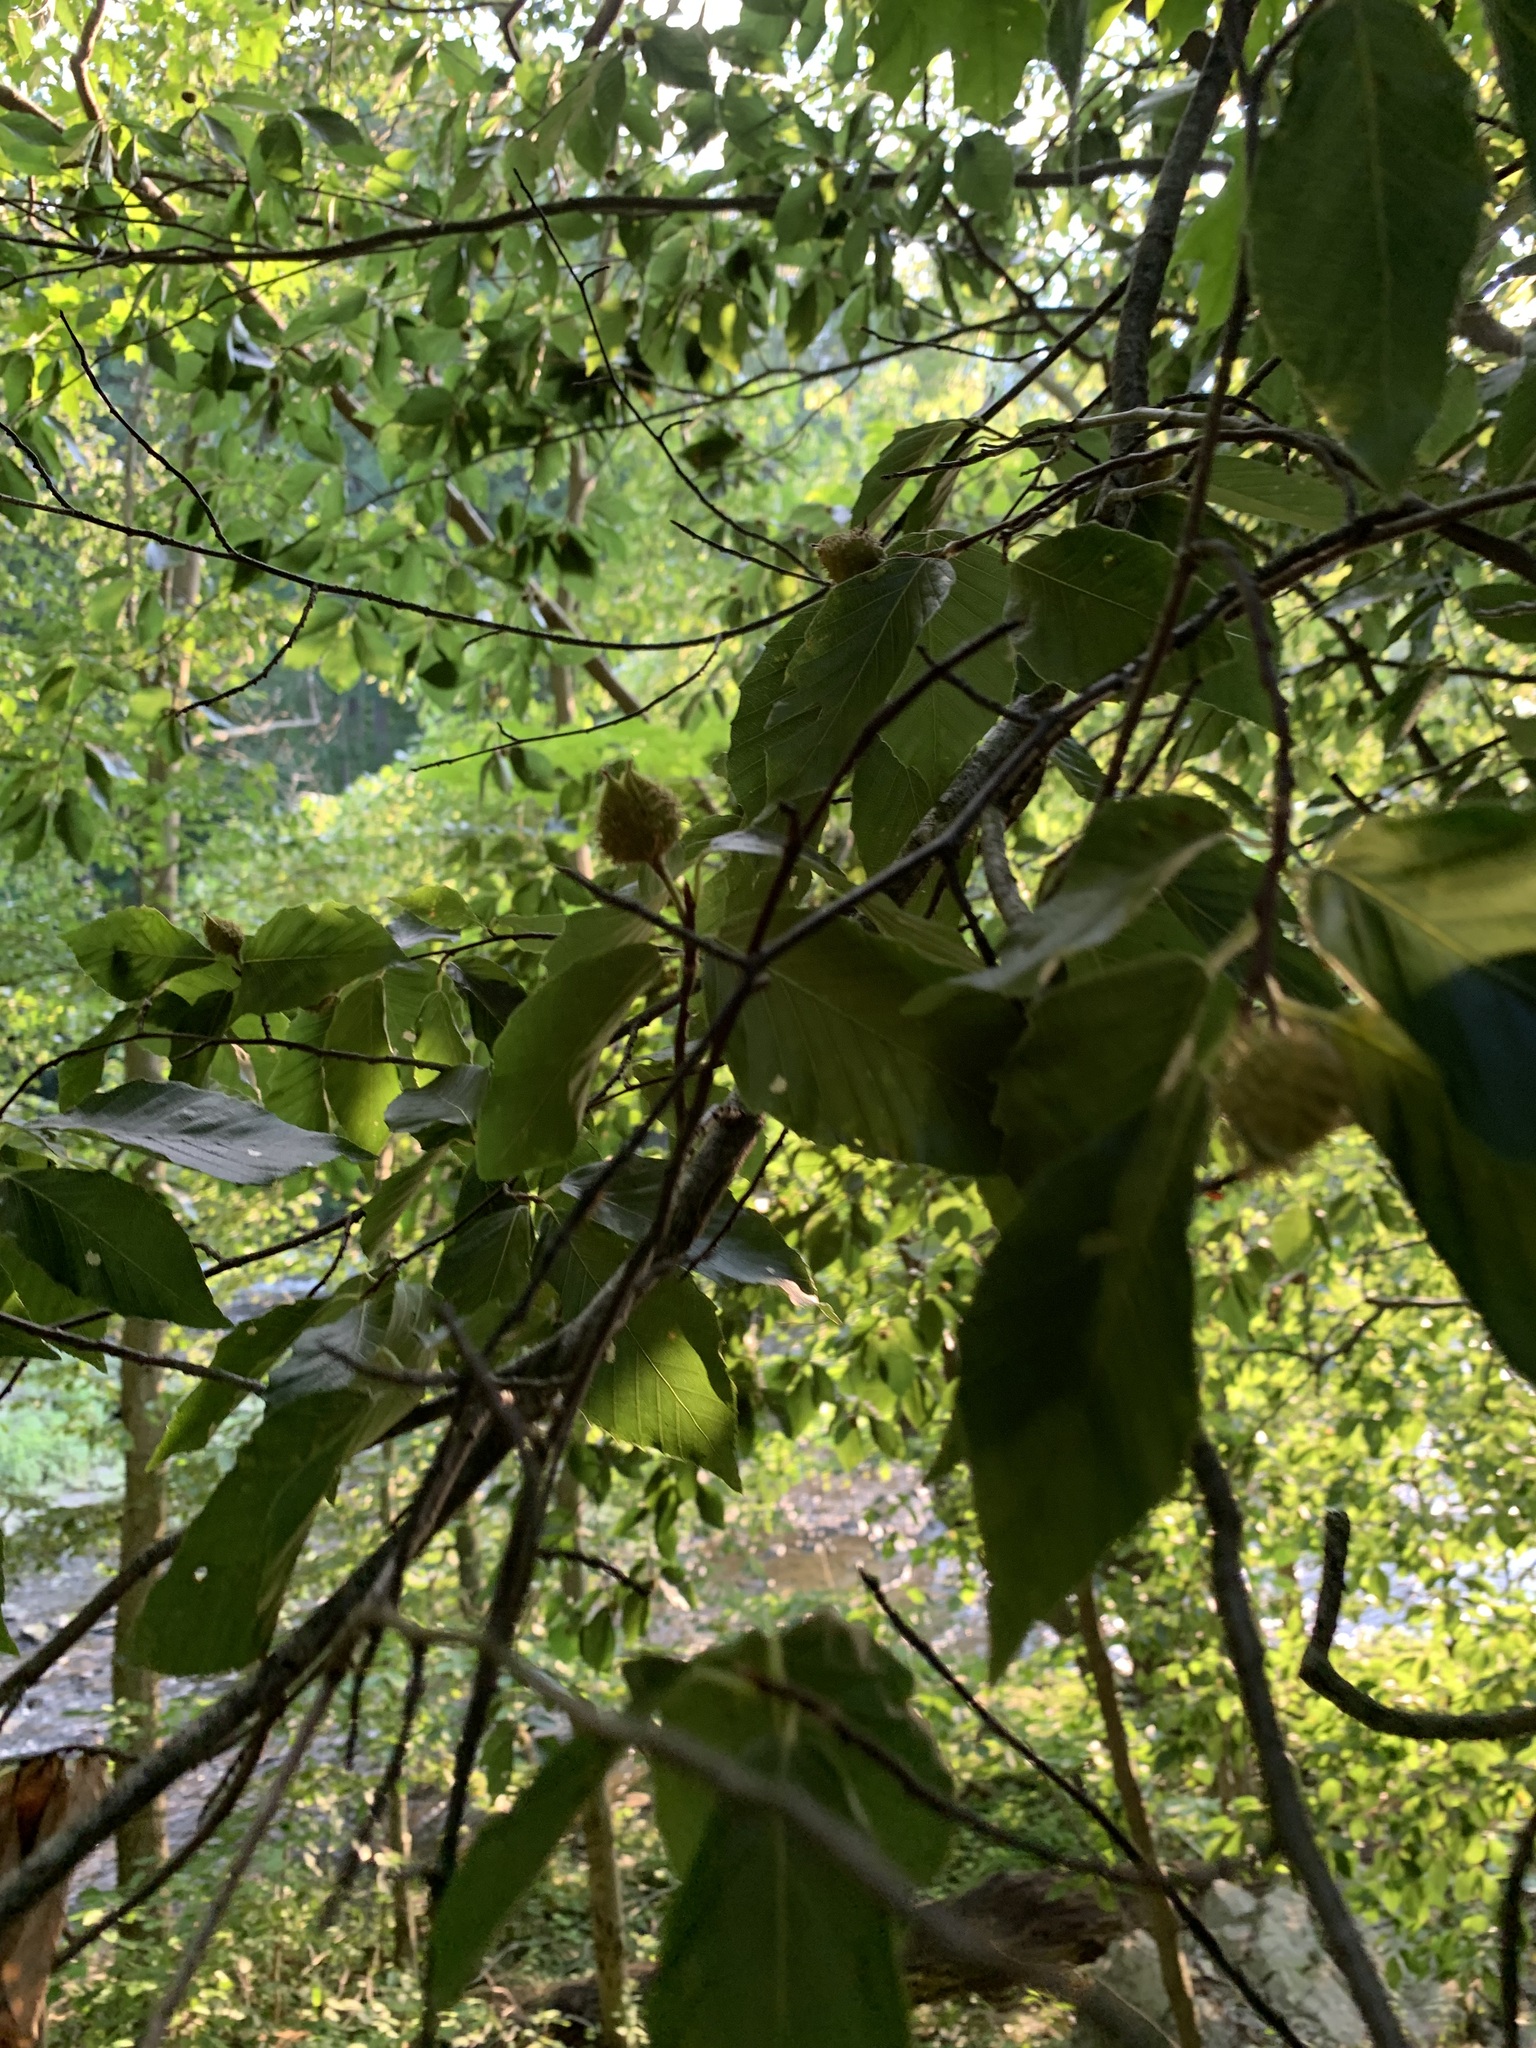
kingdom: Plantae
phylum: Tracheophyta
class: Magnoliopsida
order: Fagales
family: Fagaceae
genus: Fagus
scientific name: Fagus grandifolia
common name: American beech
